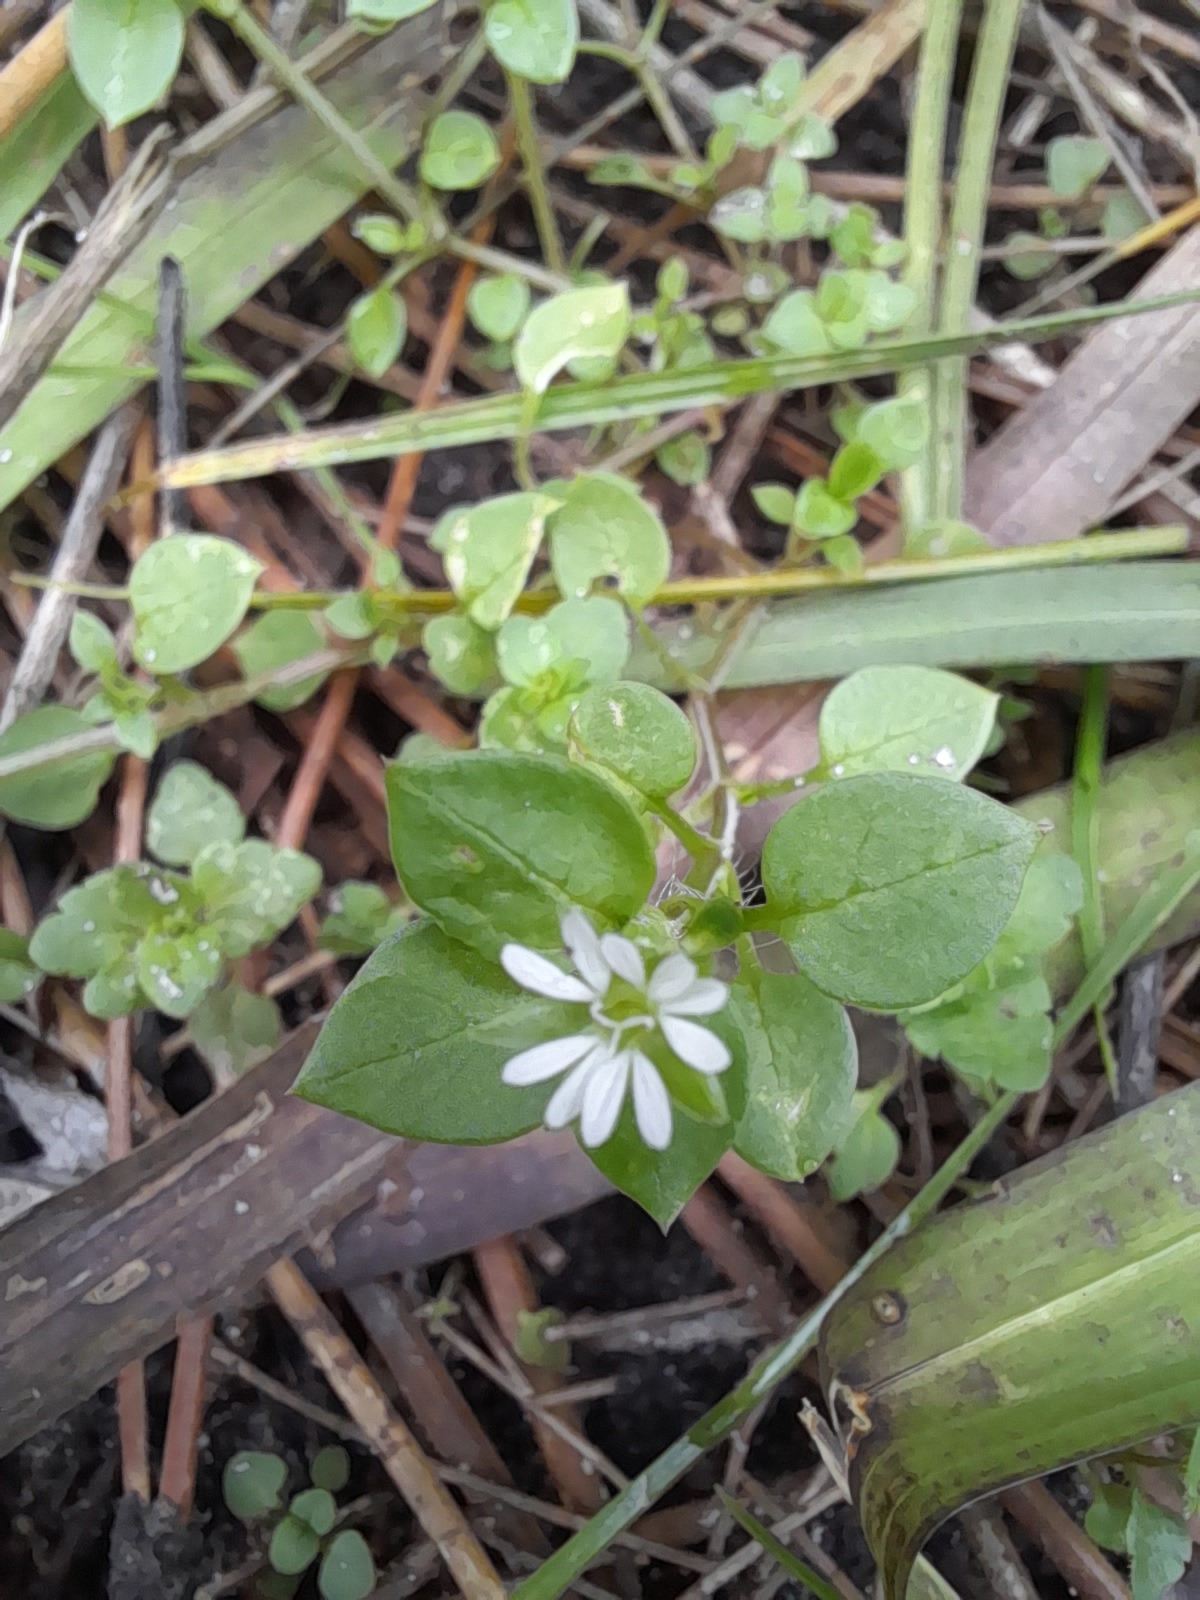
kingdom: Plantae
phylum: Tracheophyta
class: Magnoliopsida
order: Caryophyllales
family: Caryophyllaceae
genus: Stellaria
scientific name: Stellaria media
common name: Common chickweed
